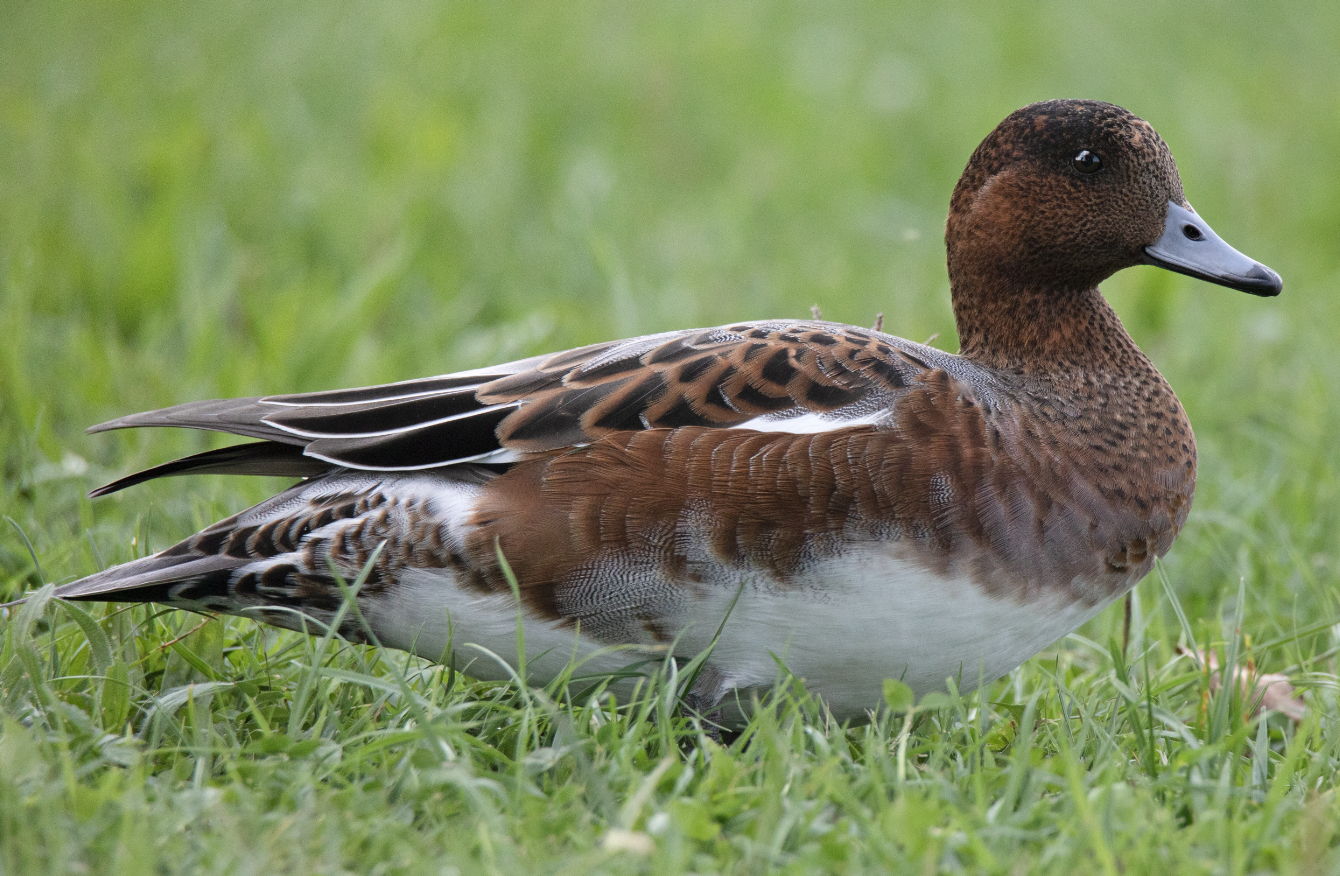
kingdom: Animalia
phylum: Chordata
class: Aves
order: Anseriformes
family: Anatidae
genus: Mareca
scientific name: Mareca penelope
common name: Eurasian wigeon
